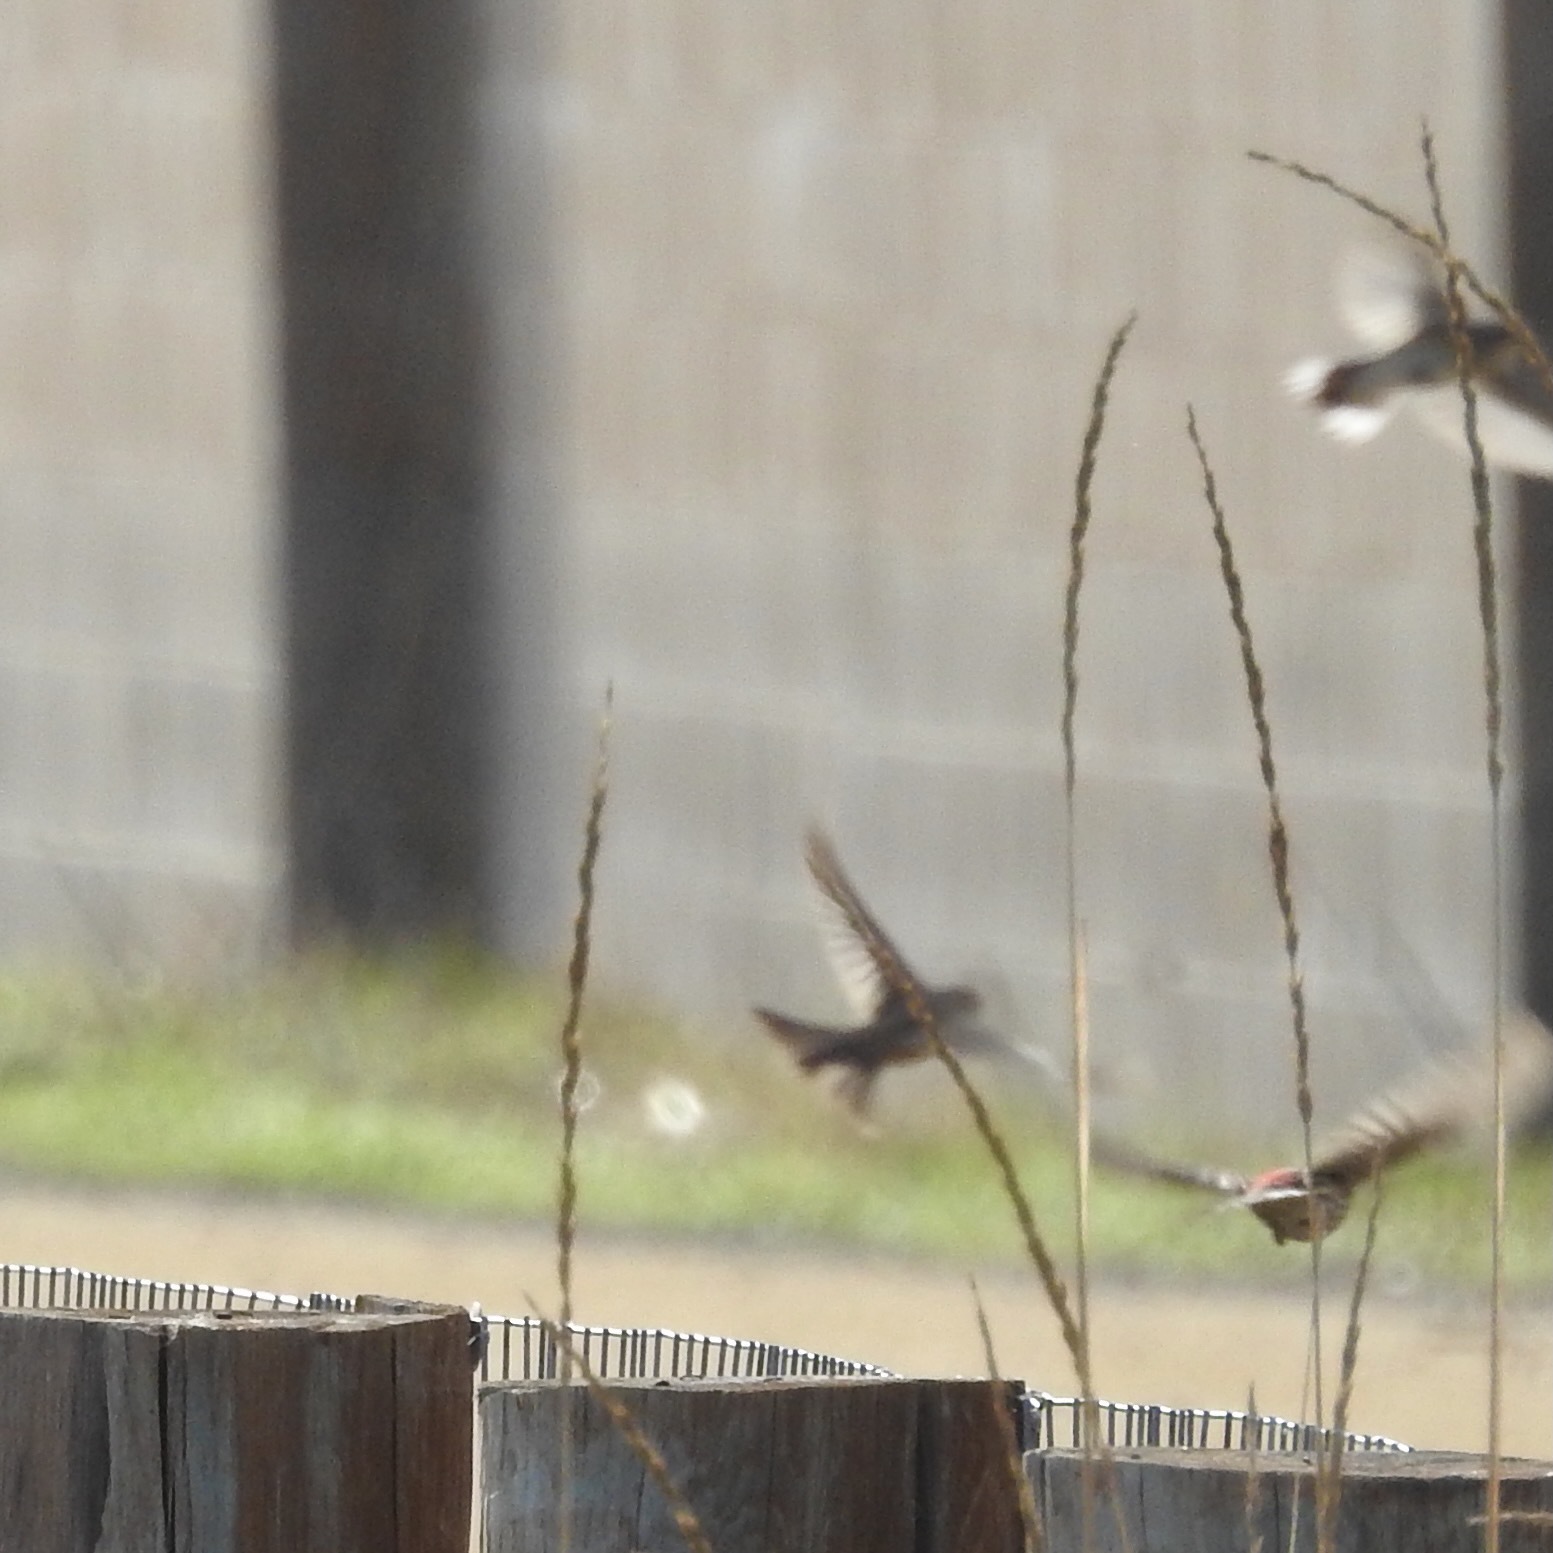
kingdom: Animalia
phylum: Chordata
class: Aves
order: Passeriformes
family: Fringillidae
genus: Haemorhous
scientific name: Haemorhous mexicanus
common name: House finch
